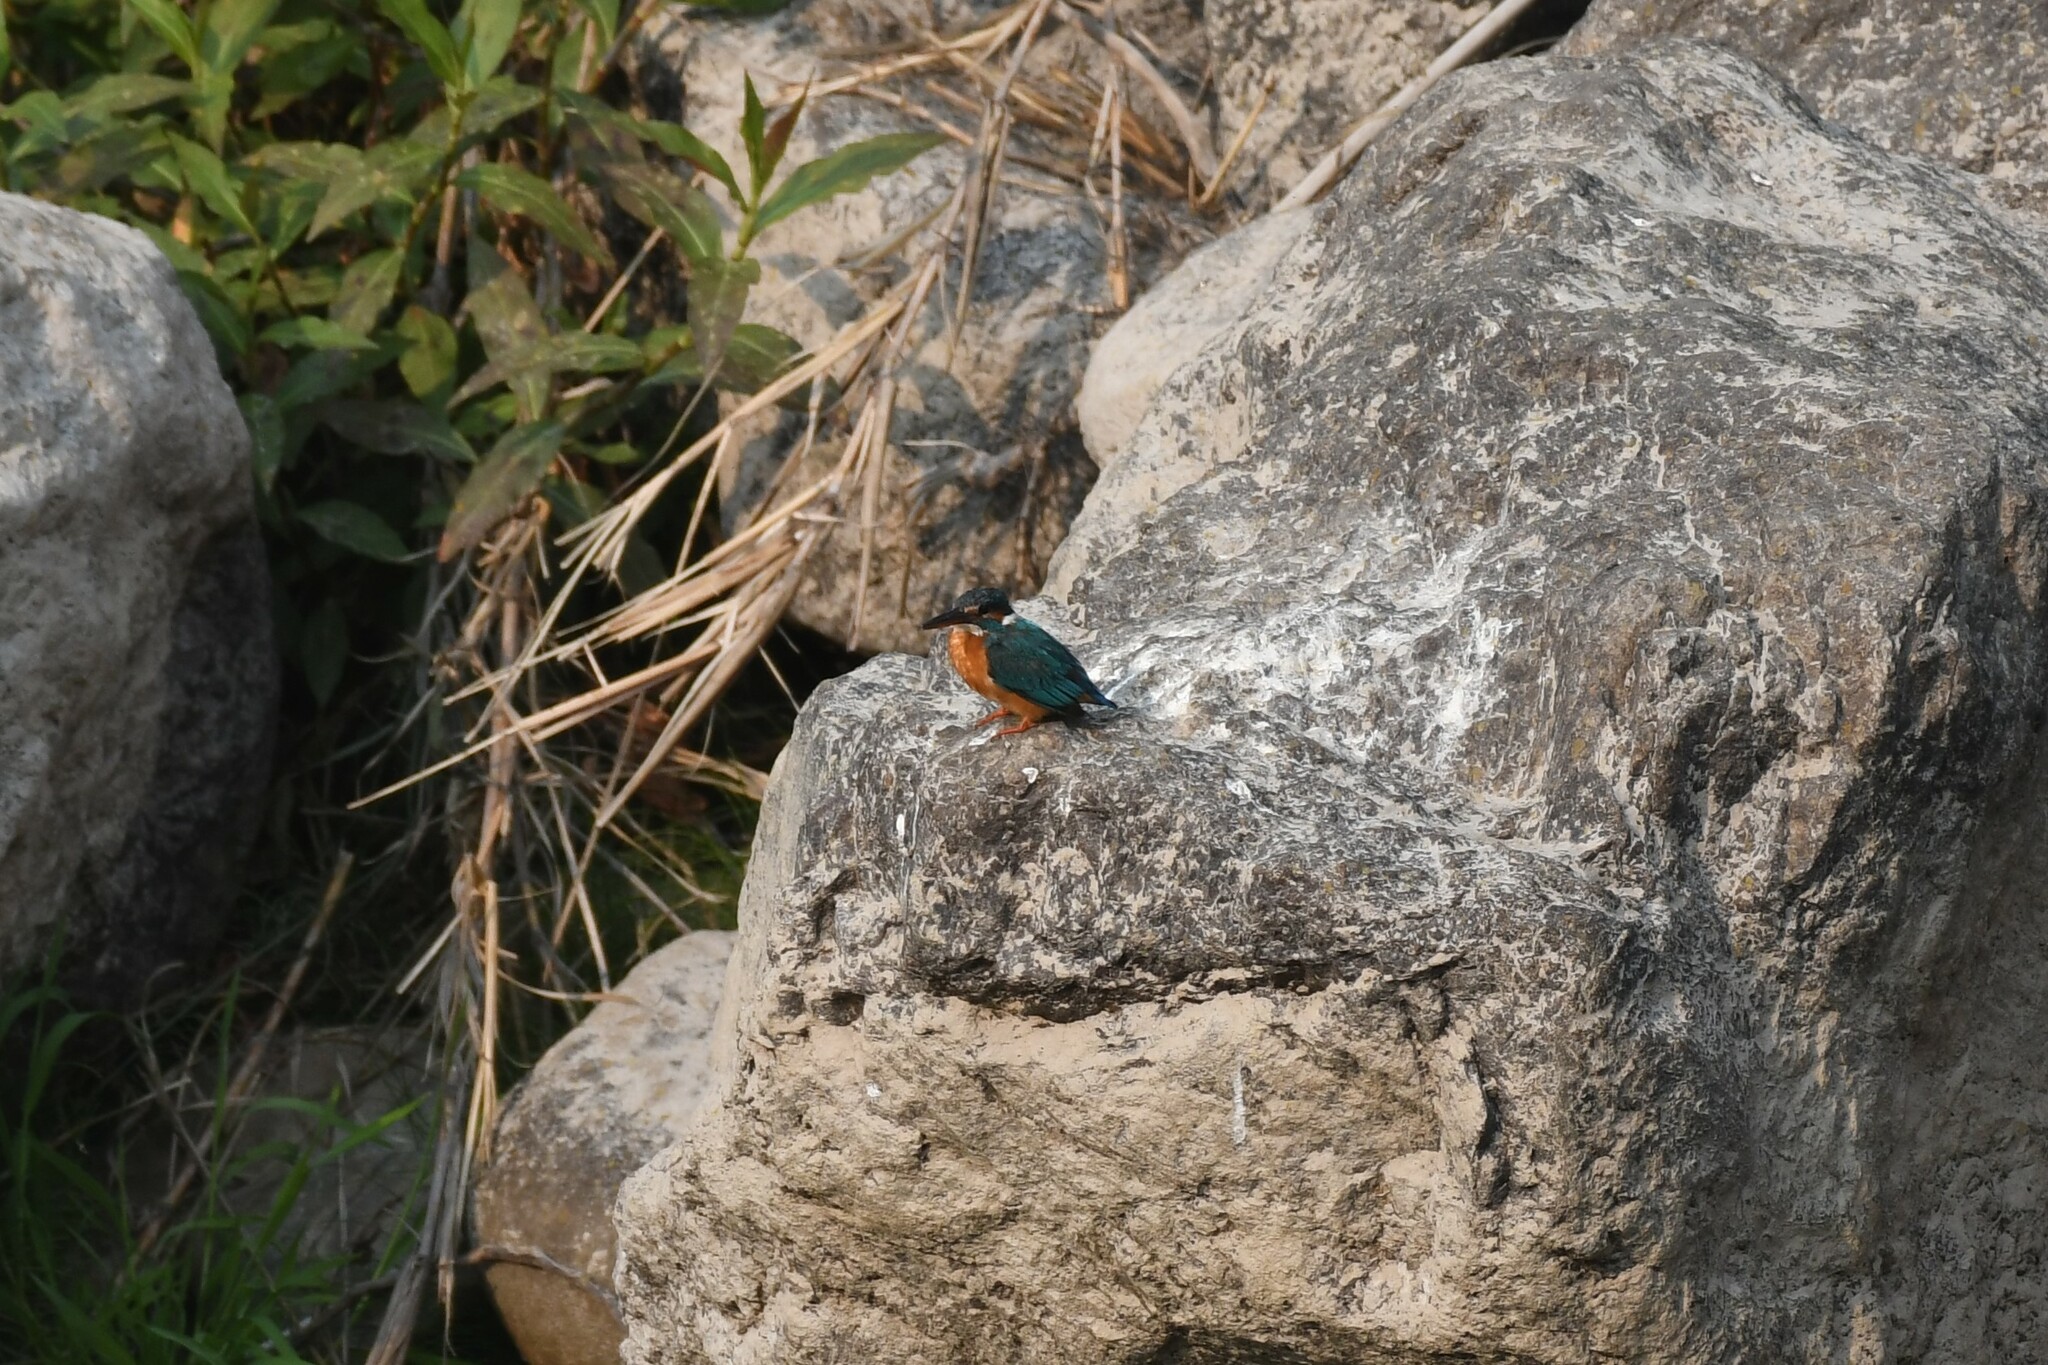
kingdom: Animalia
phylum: Chordata
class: Aves
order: Coraciiformes
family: Alcedinidae
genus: Alcedo
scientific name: Alcedo atthis
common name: Common kingfisher
